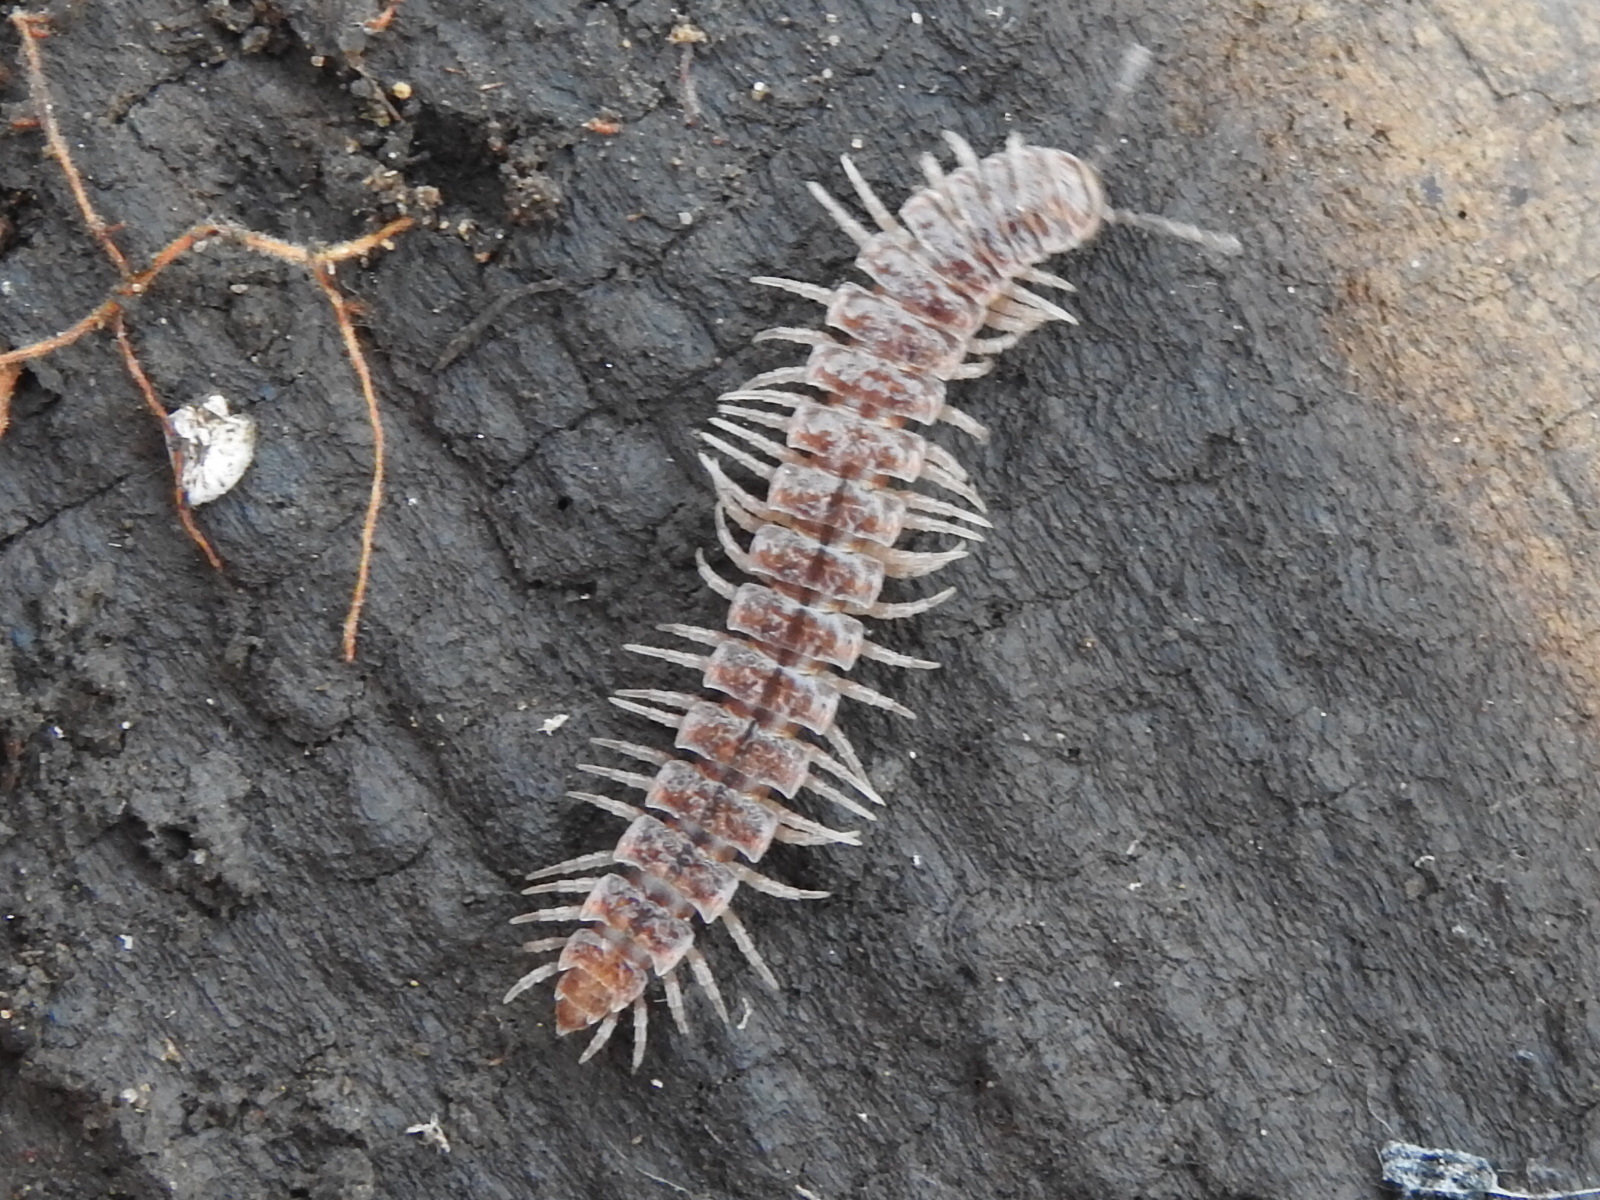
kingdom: Animalia
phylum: Arthropoda
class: Diplopoda
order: Polydesmida
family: Polydesmidae
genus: Pseudopolydesmus
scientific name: Pseudopolydesmus pinetorum
